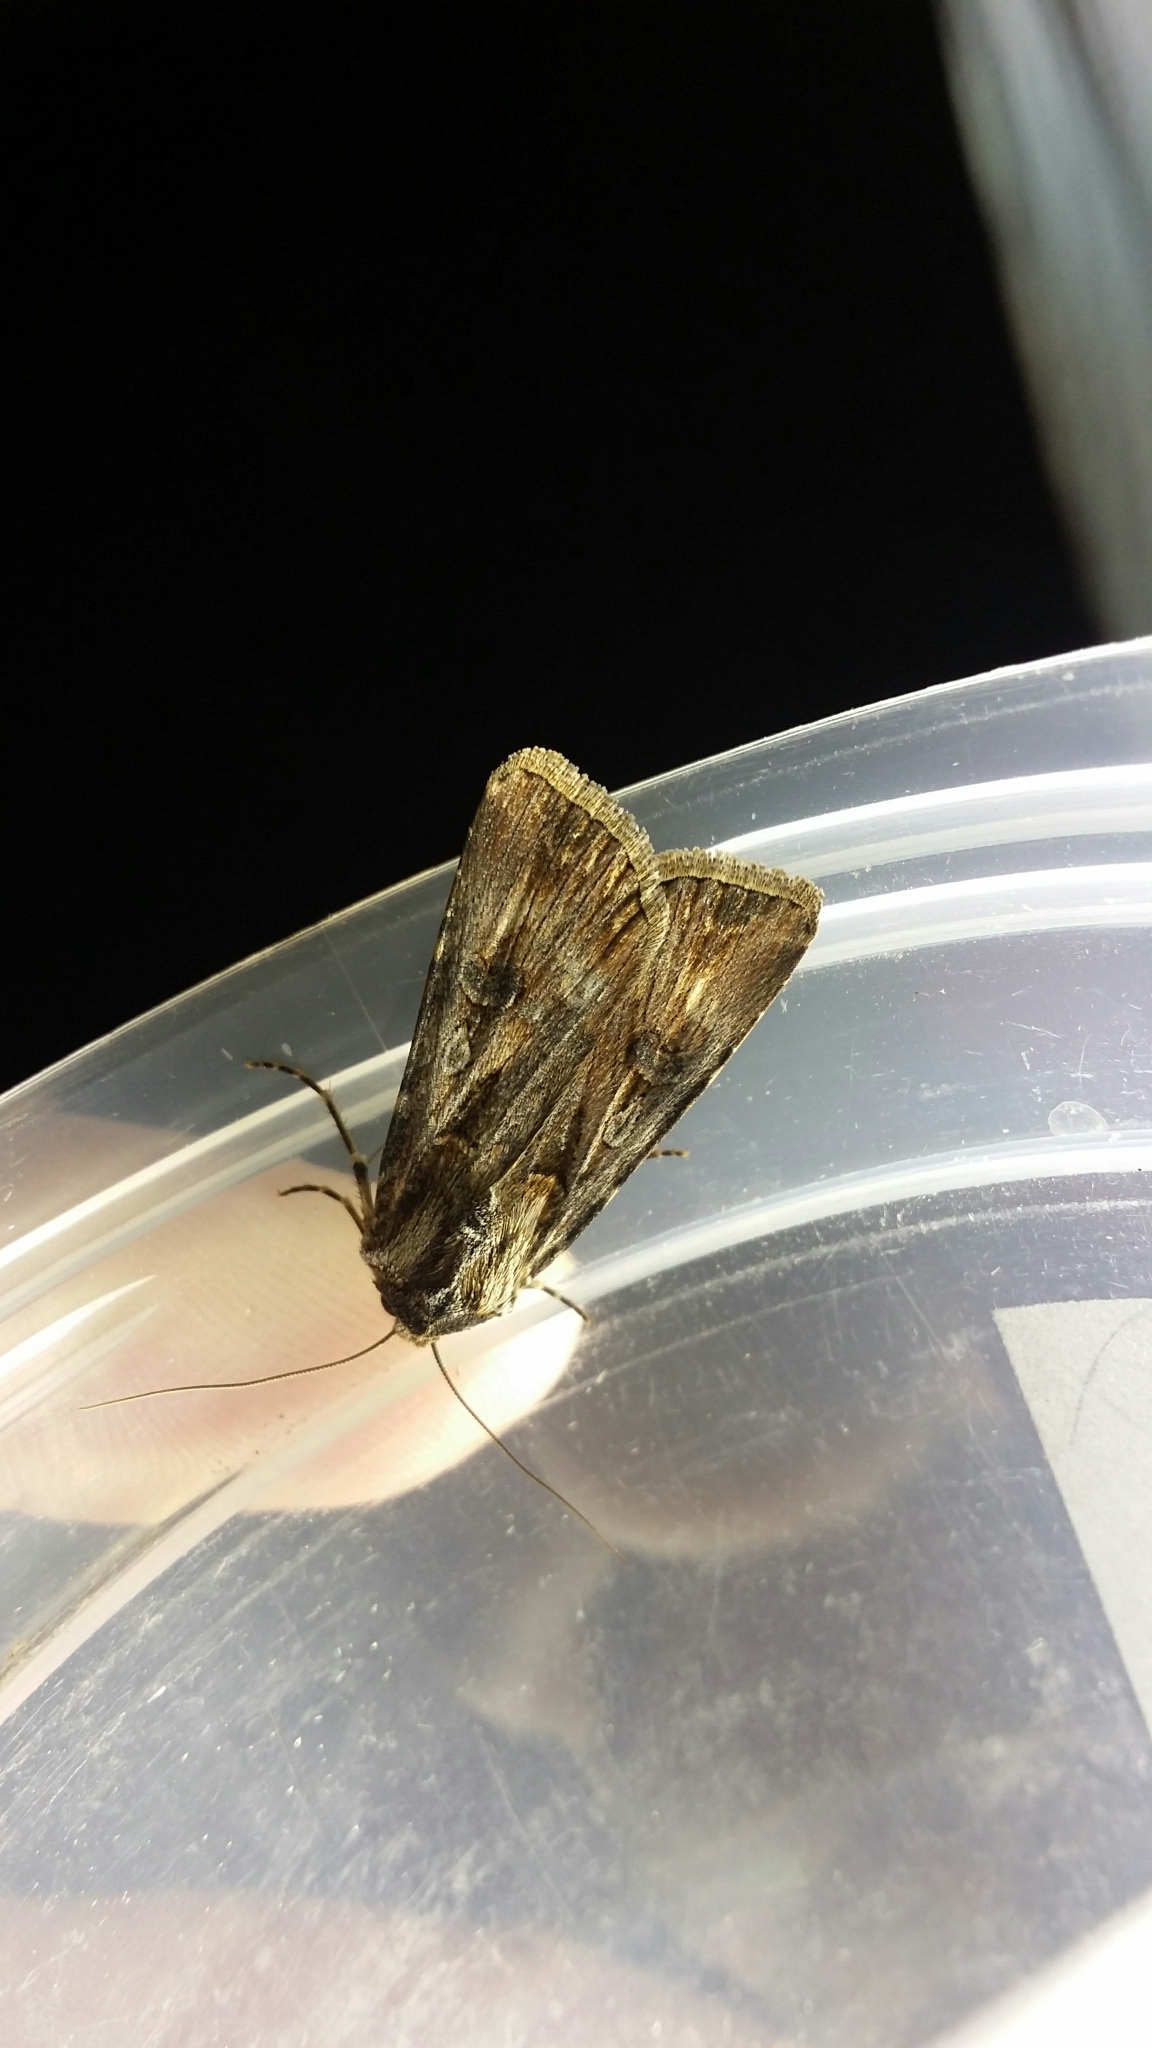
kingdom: Animalia
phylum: Arthropoda
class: Insecta
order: Lepidoptera
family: Noctuidae
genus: Agrotis
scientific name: Agrotis munda
